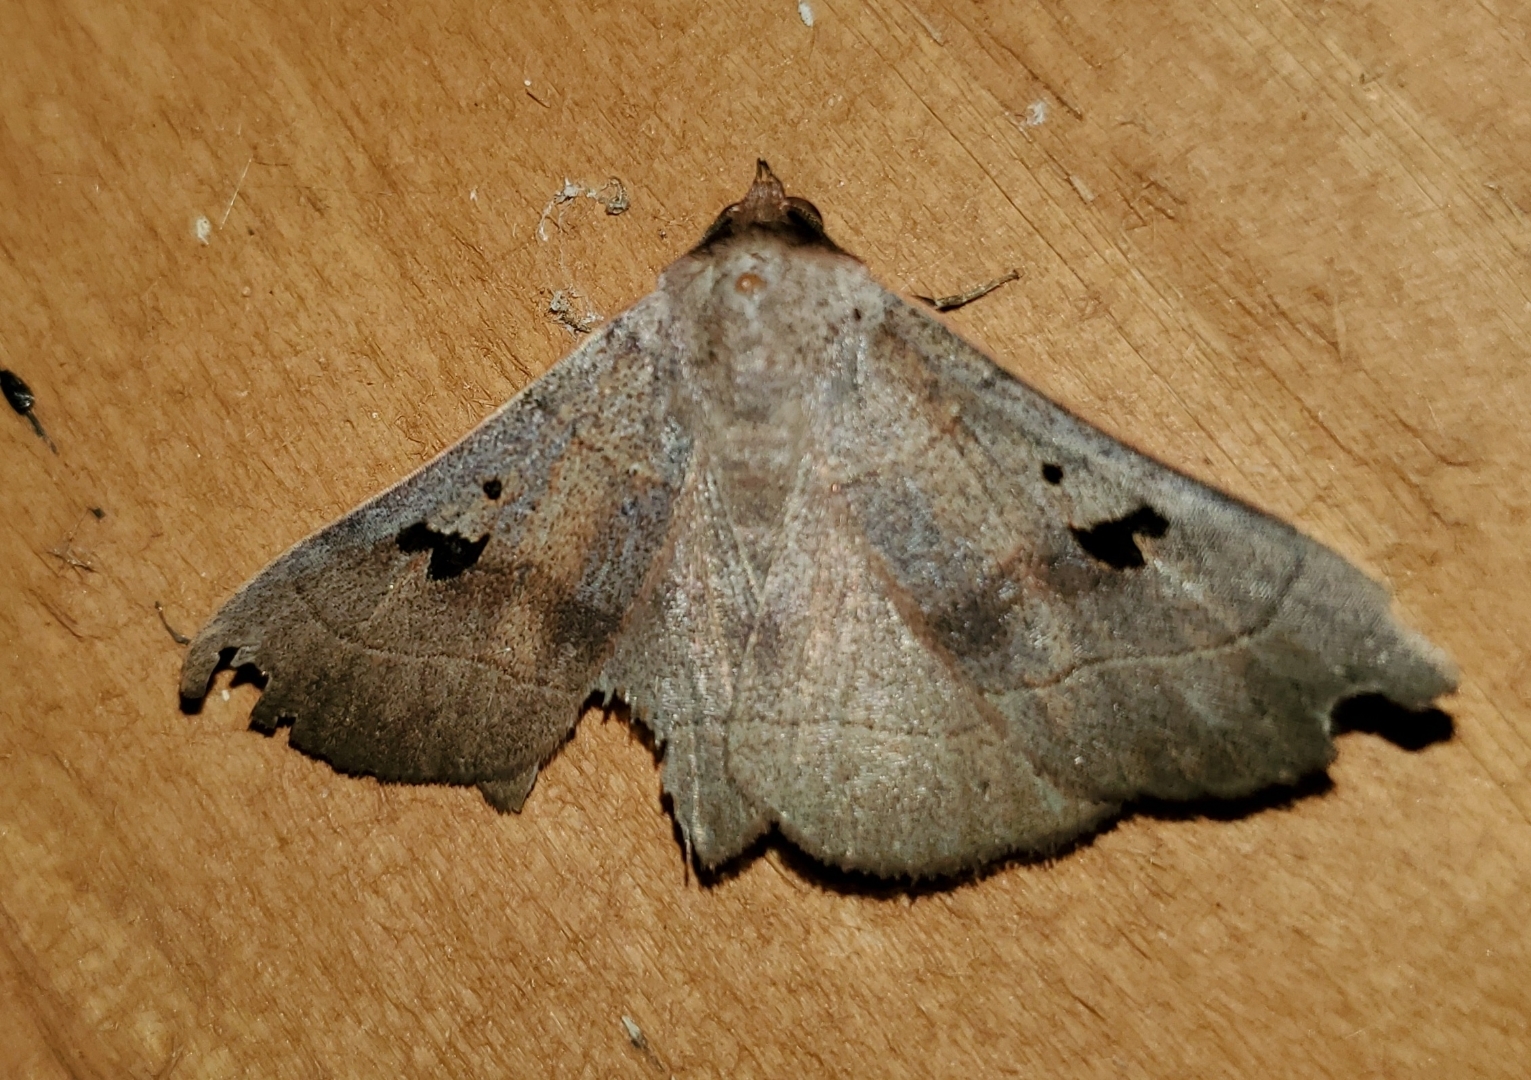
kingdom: Animalia
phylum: Arthropoda
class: Insecta
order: Lepidoptera
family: Erebidae
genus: Panopoda
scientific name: Panopoda carneicosta
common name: Brown panopoda moth
